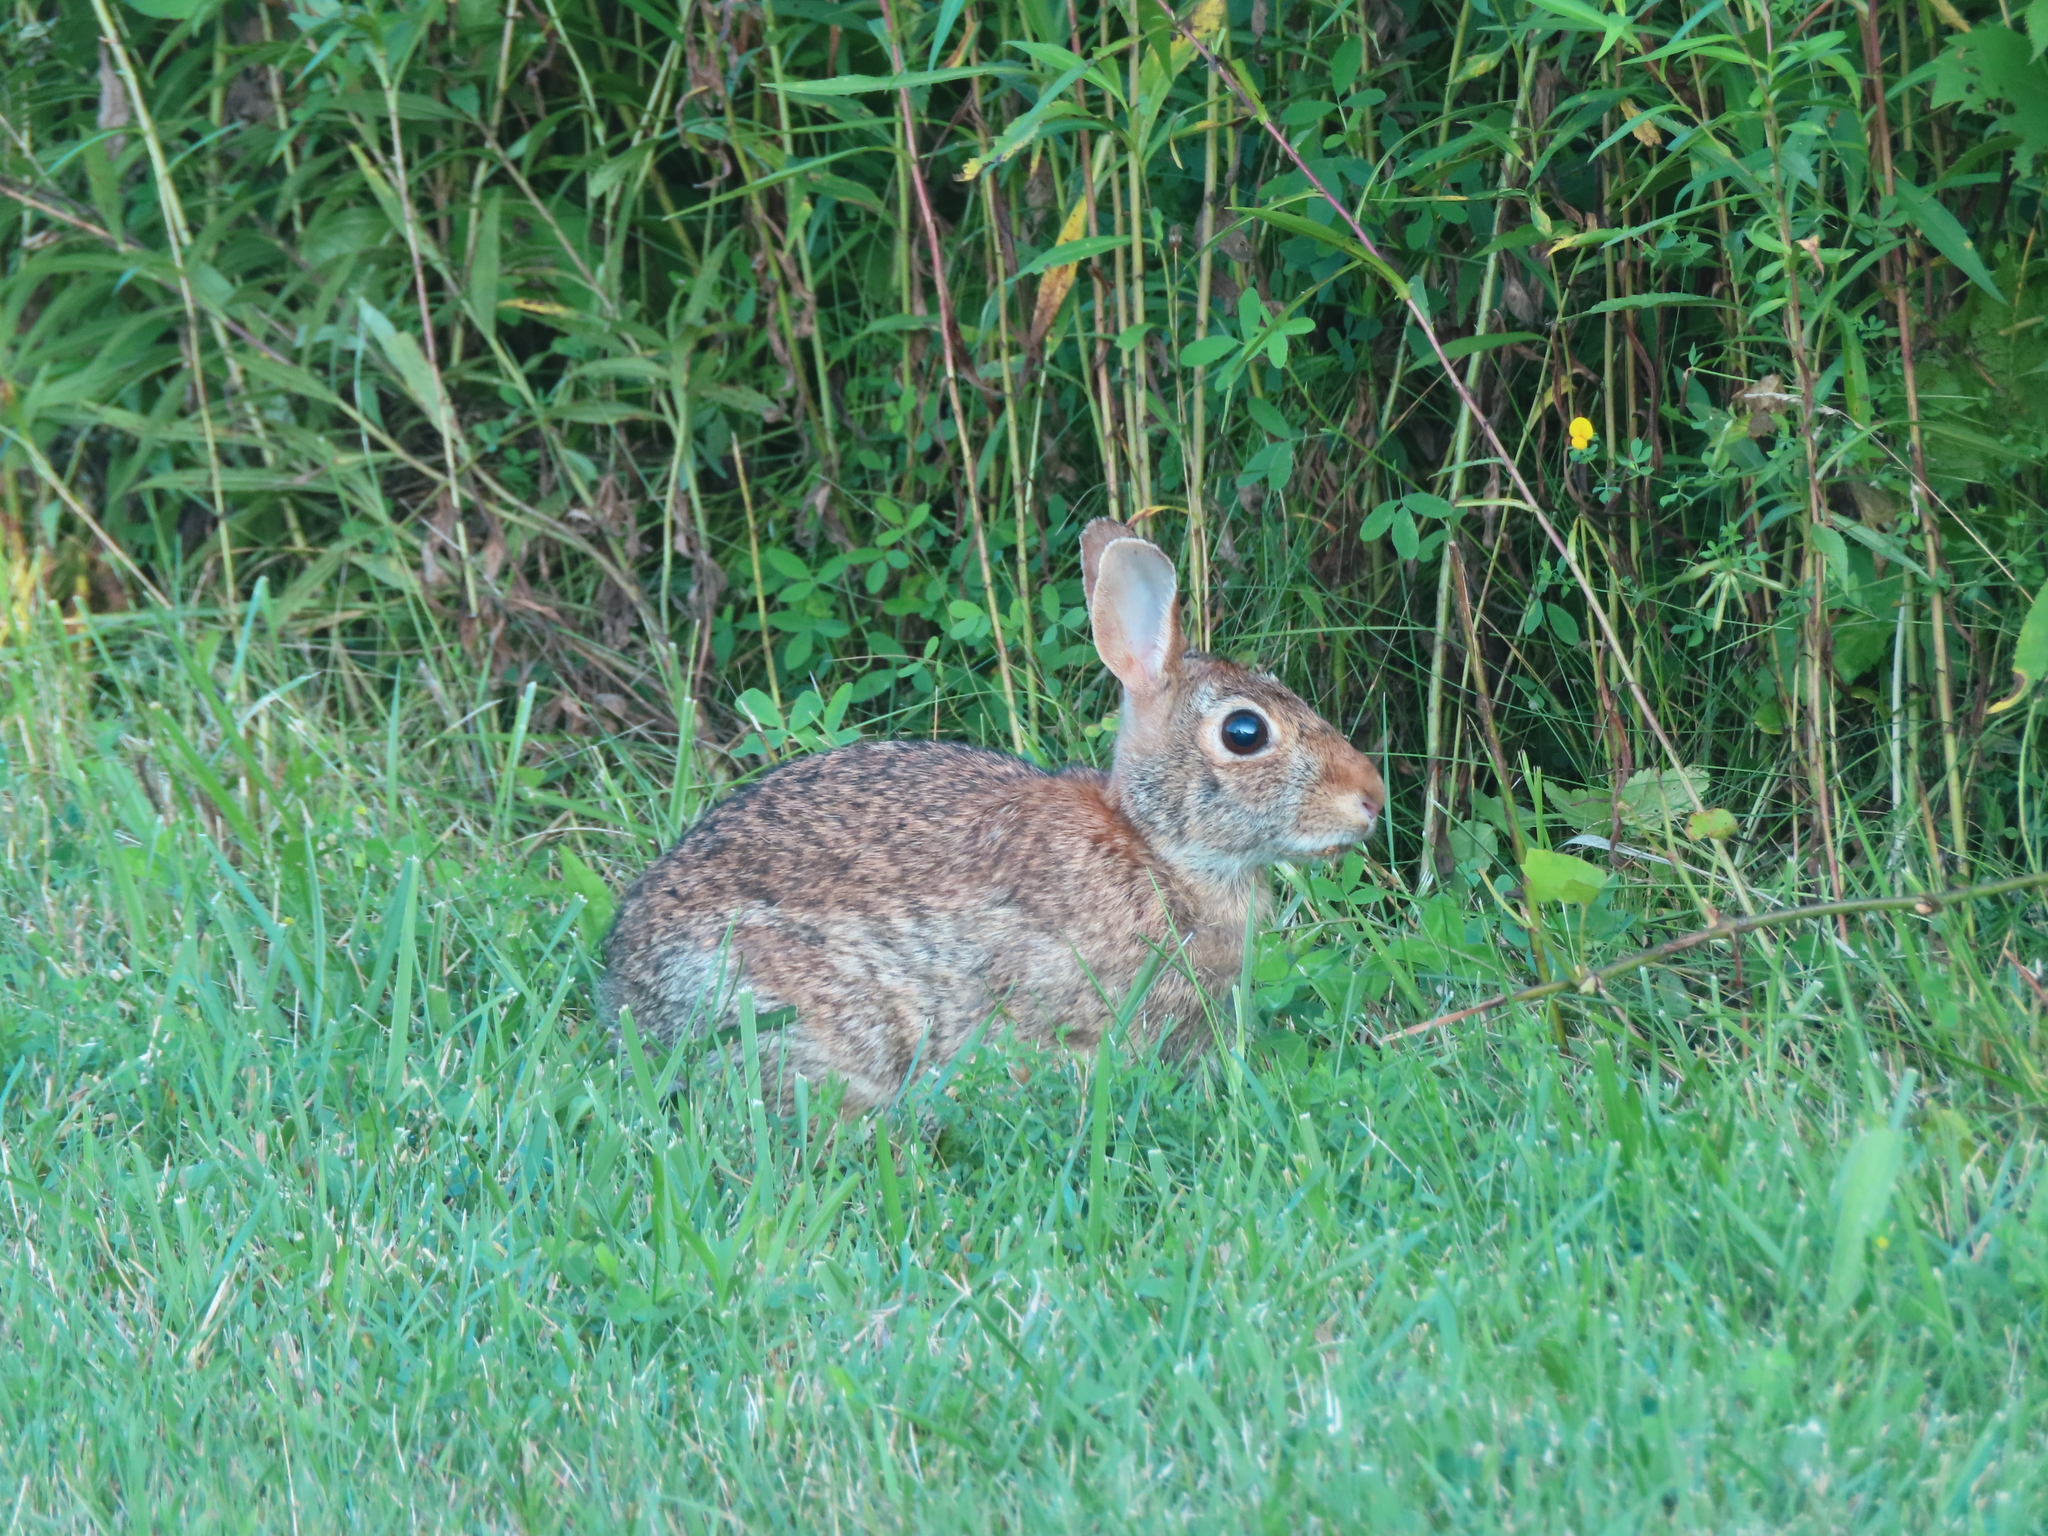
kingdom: Animalia
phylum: Chordata
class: Mammalia
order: Lagomorpha
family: Leporidae
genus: Sylvilagus
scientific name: Sylvilagus floridanus
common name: Eastern cottontail
